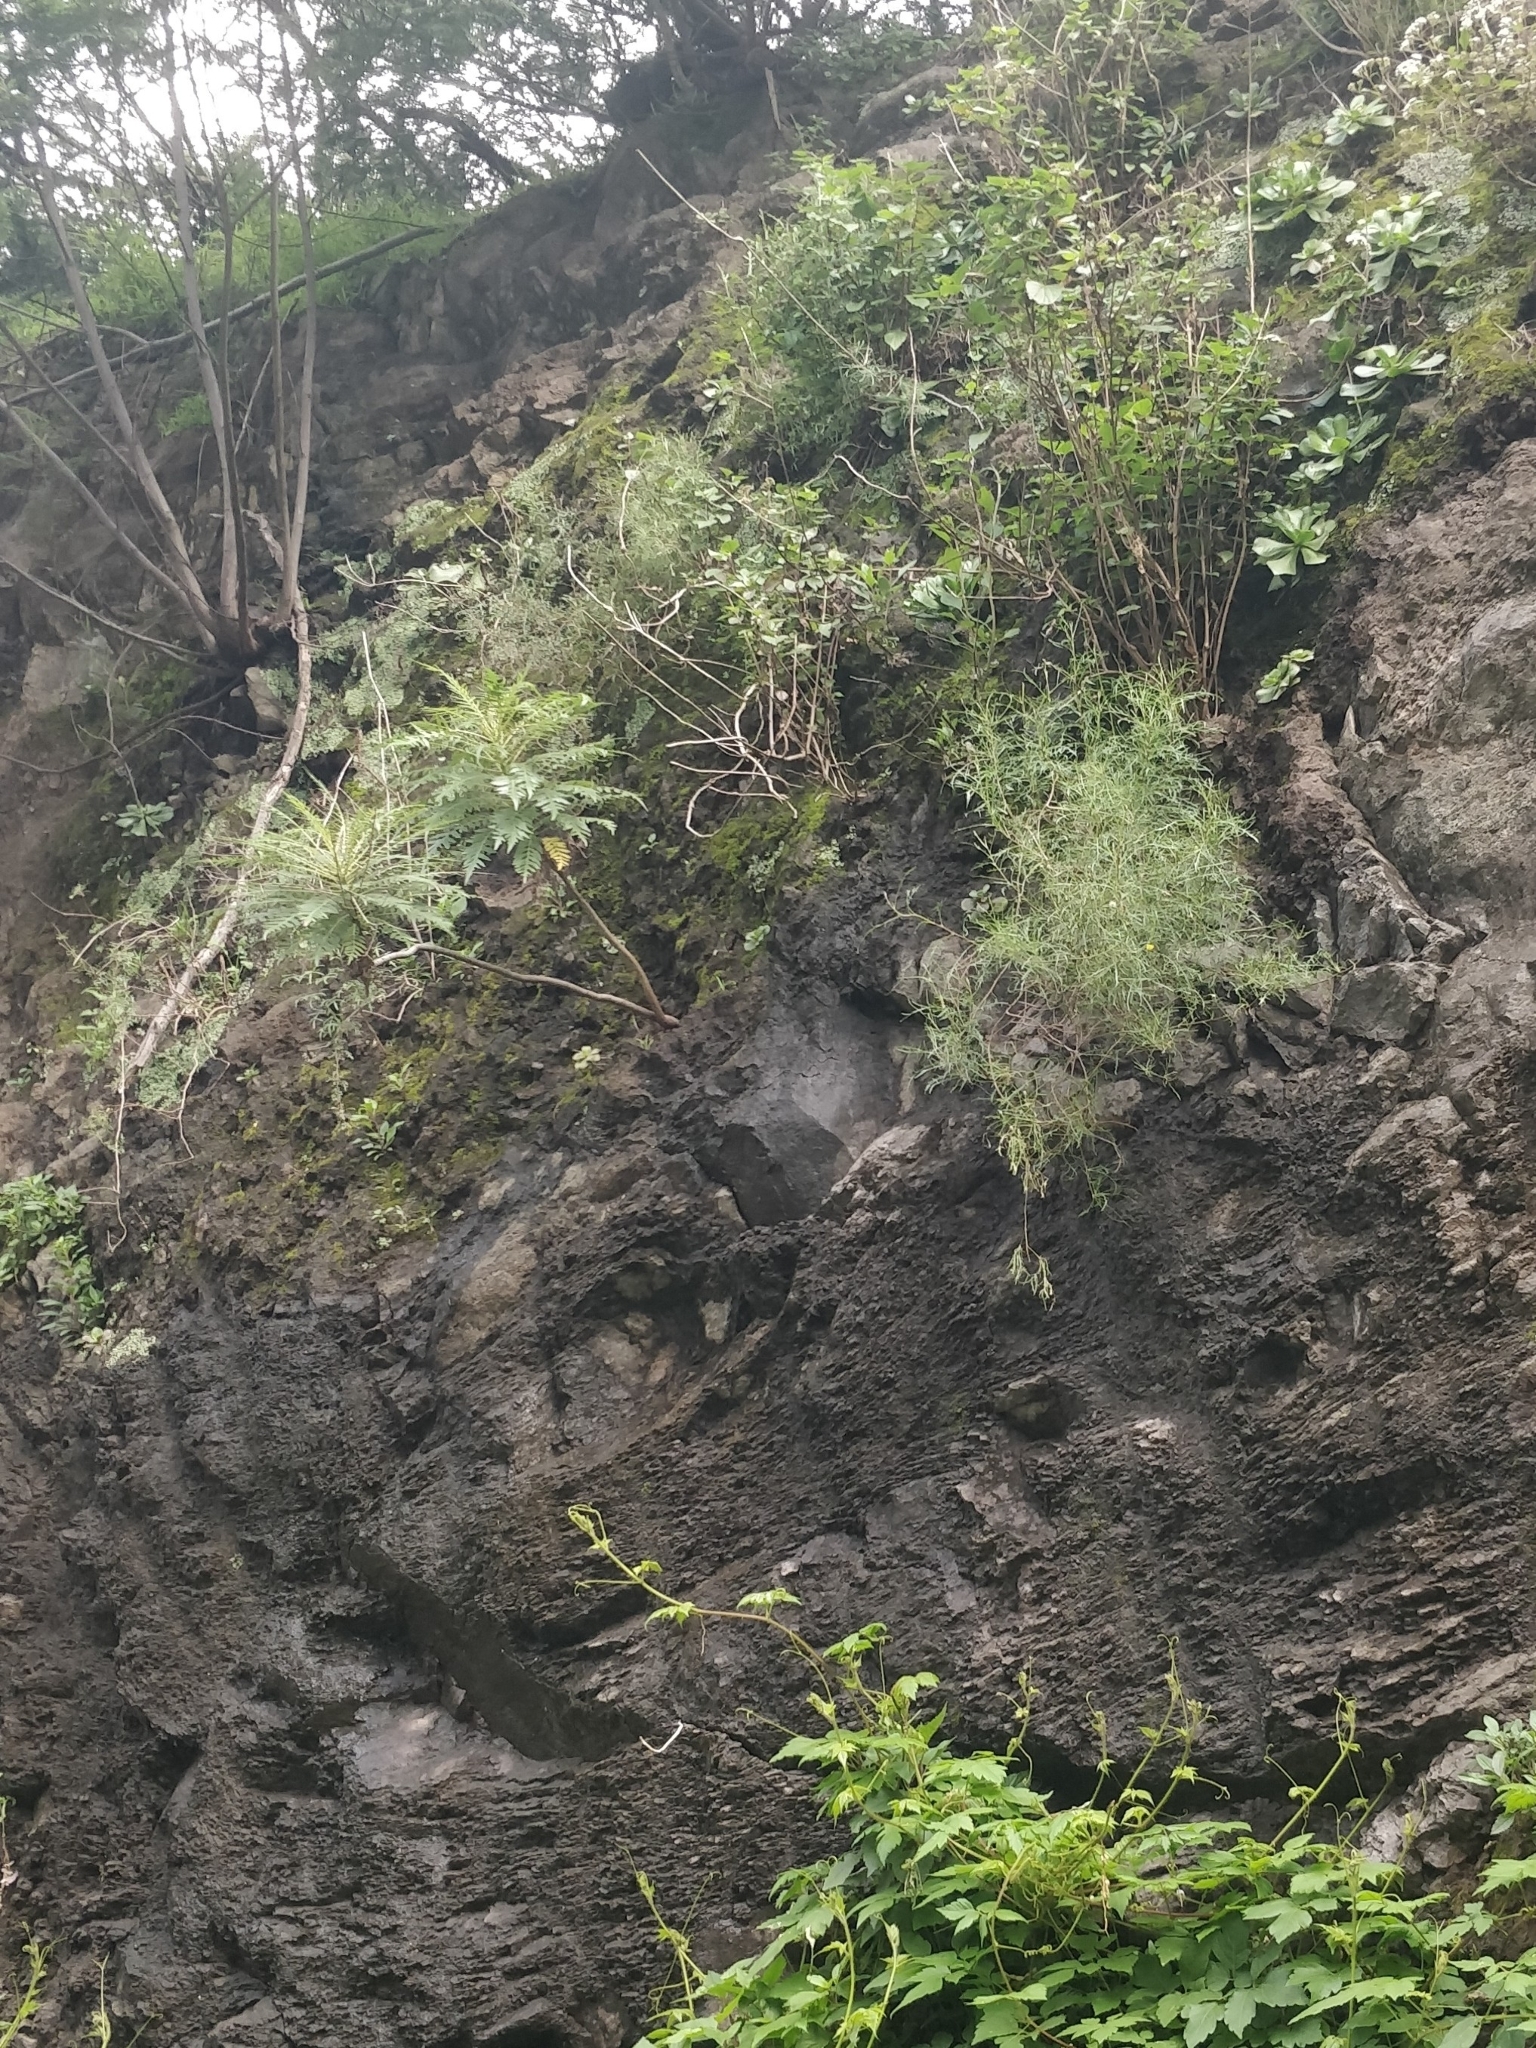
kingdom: Plantae
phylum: Tracheophyta
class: Magnoliopsida
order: Asterales
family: Asteraceae
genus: Sonchus
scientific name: Sonchus pinnatus
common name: Wing-leaved sow-thistle
